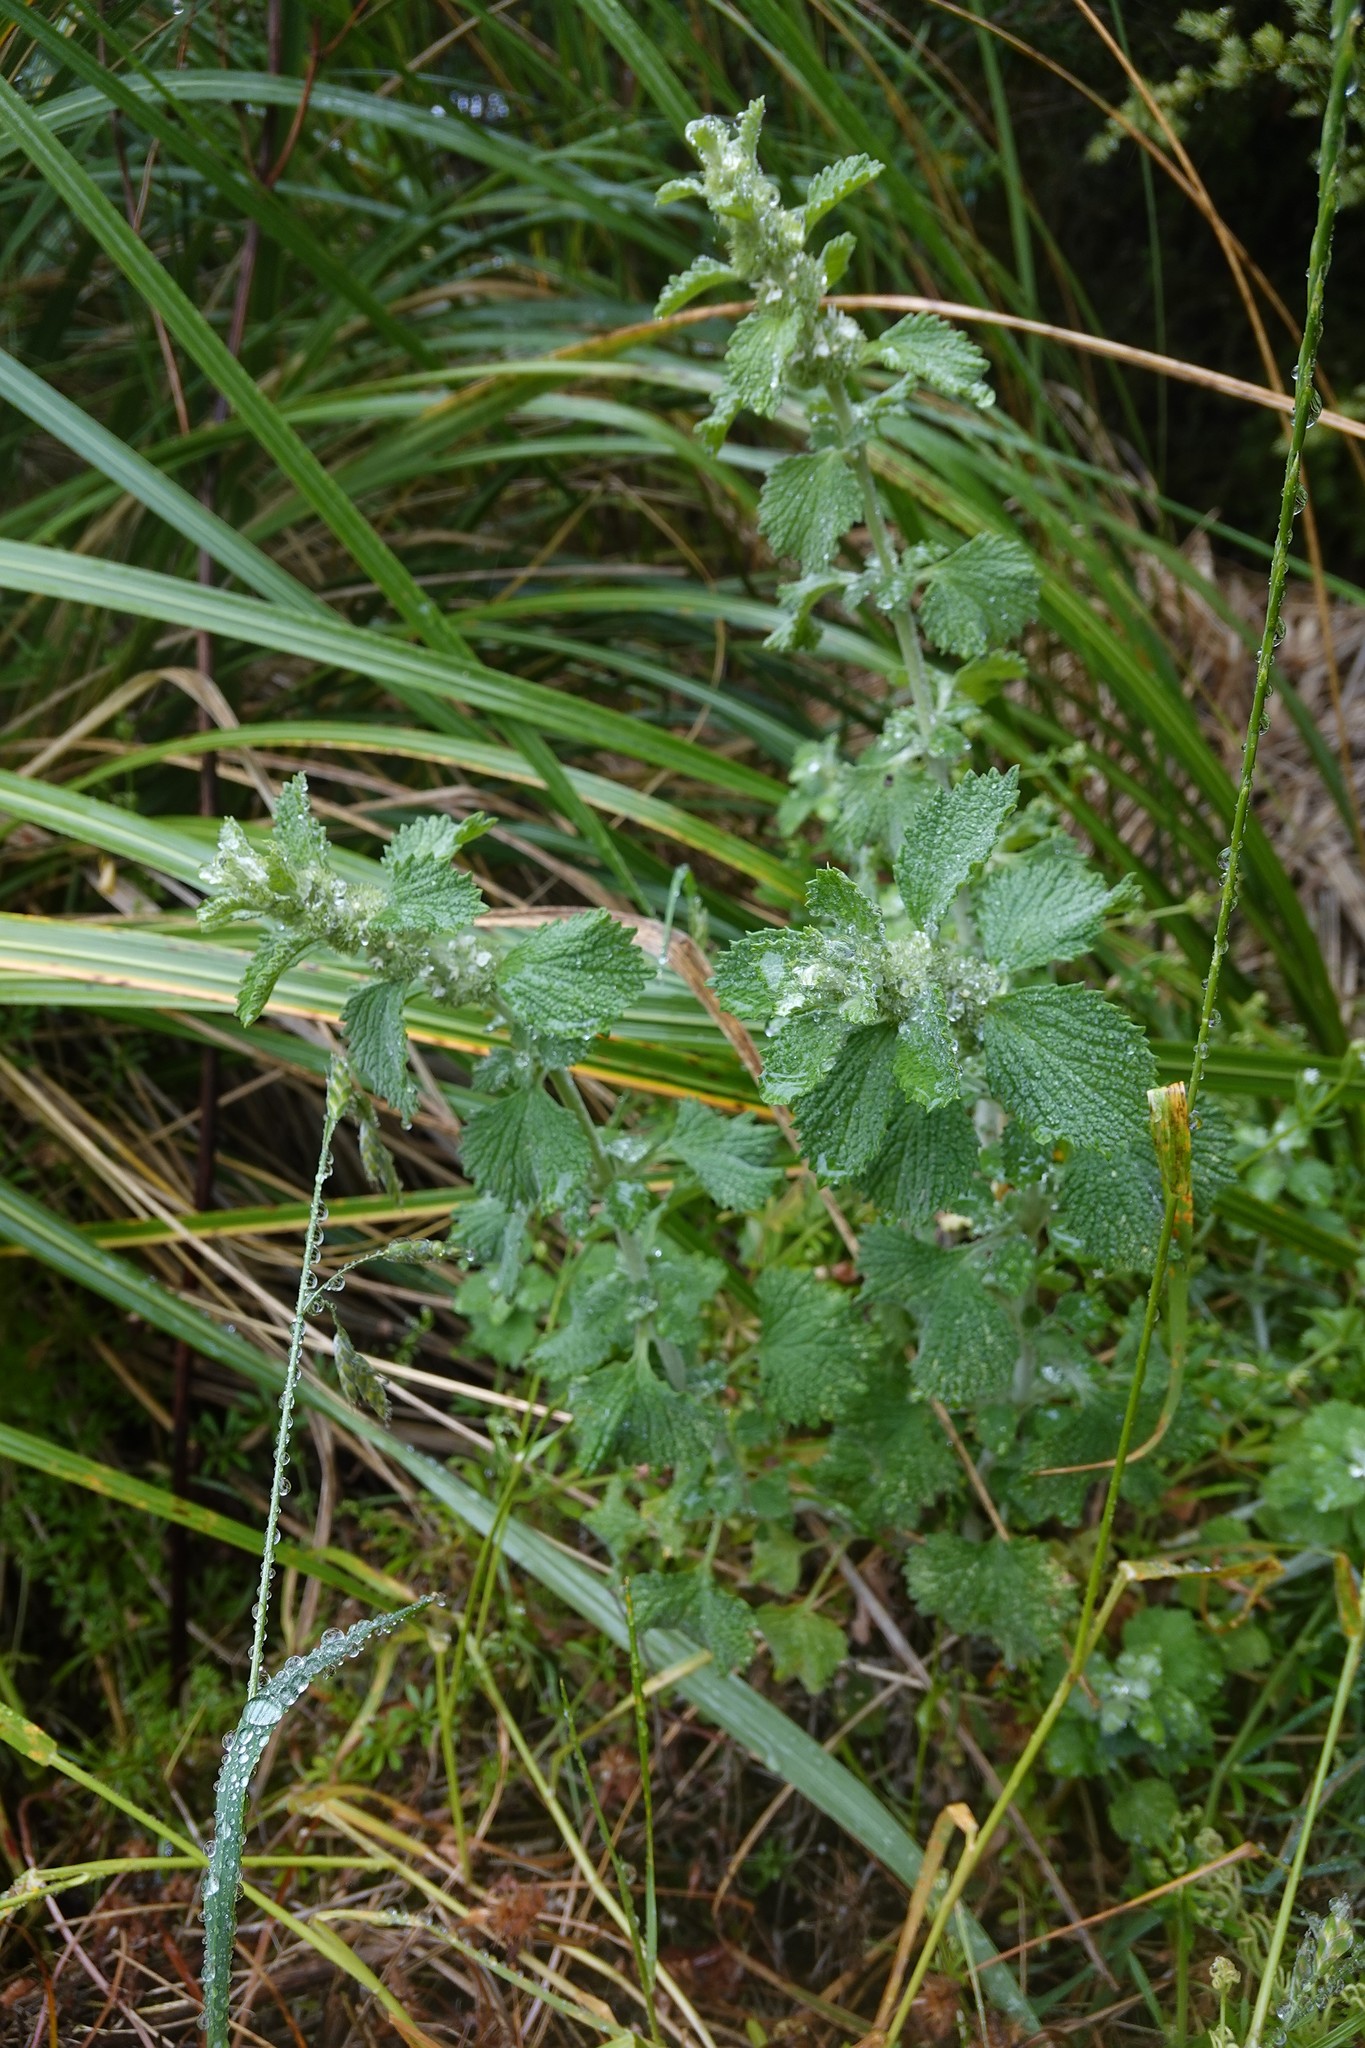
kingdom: Plantae
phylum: Tracheophyta
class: Magnoliopsida
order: Lamiales
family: Lamiaceae
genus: Marrubium
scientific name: Marrubium vulgare
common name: Horehound
